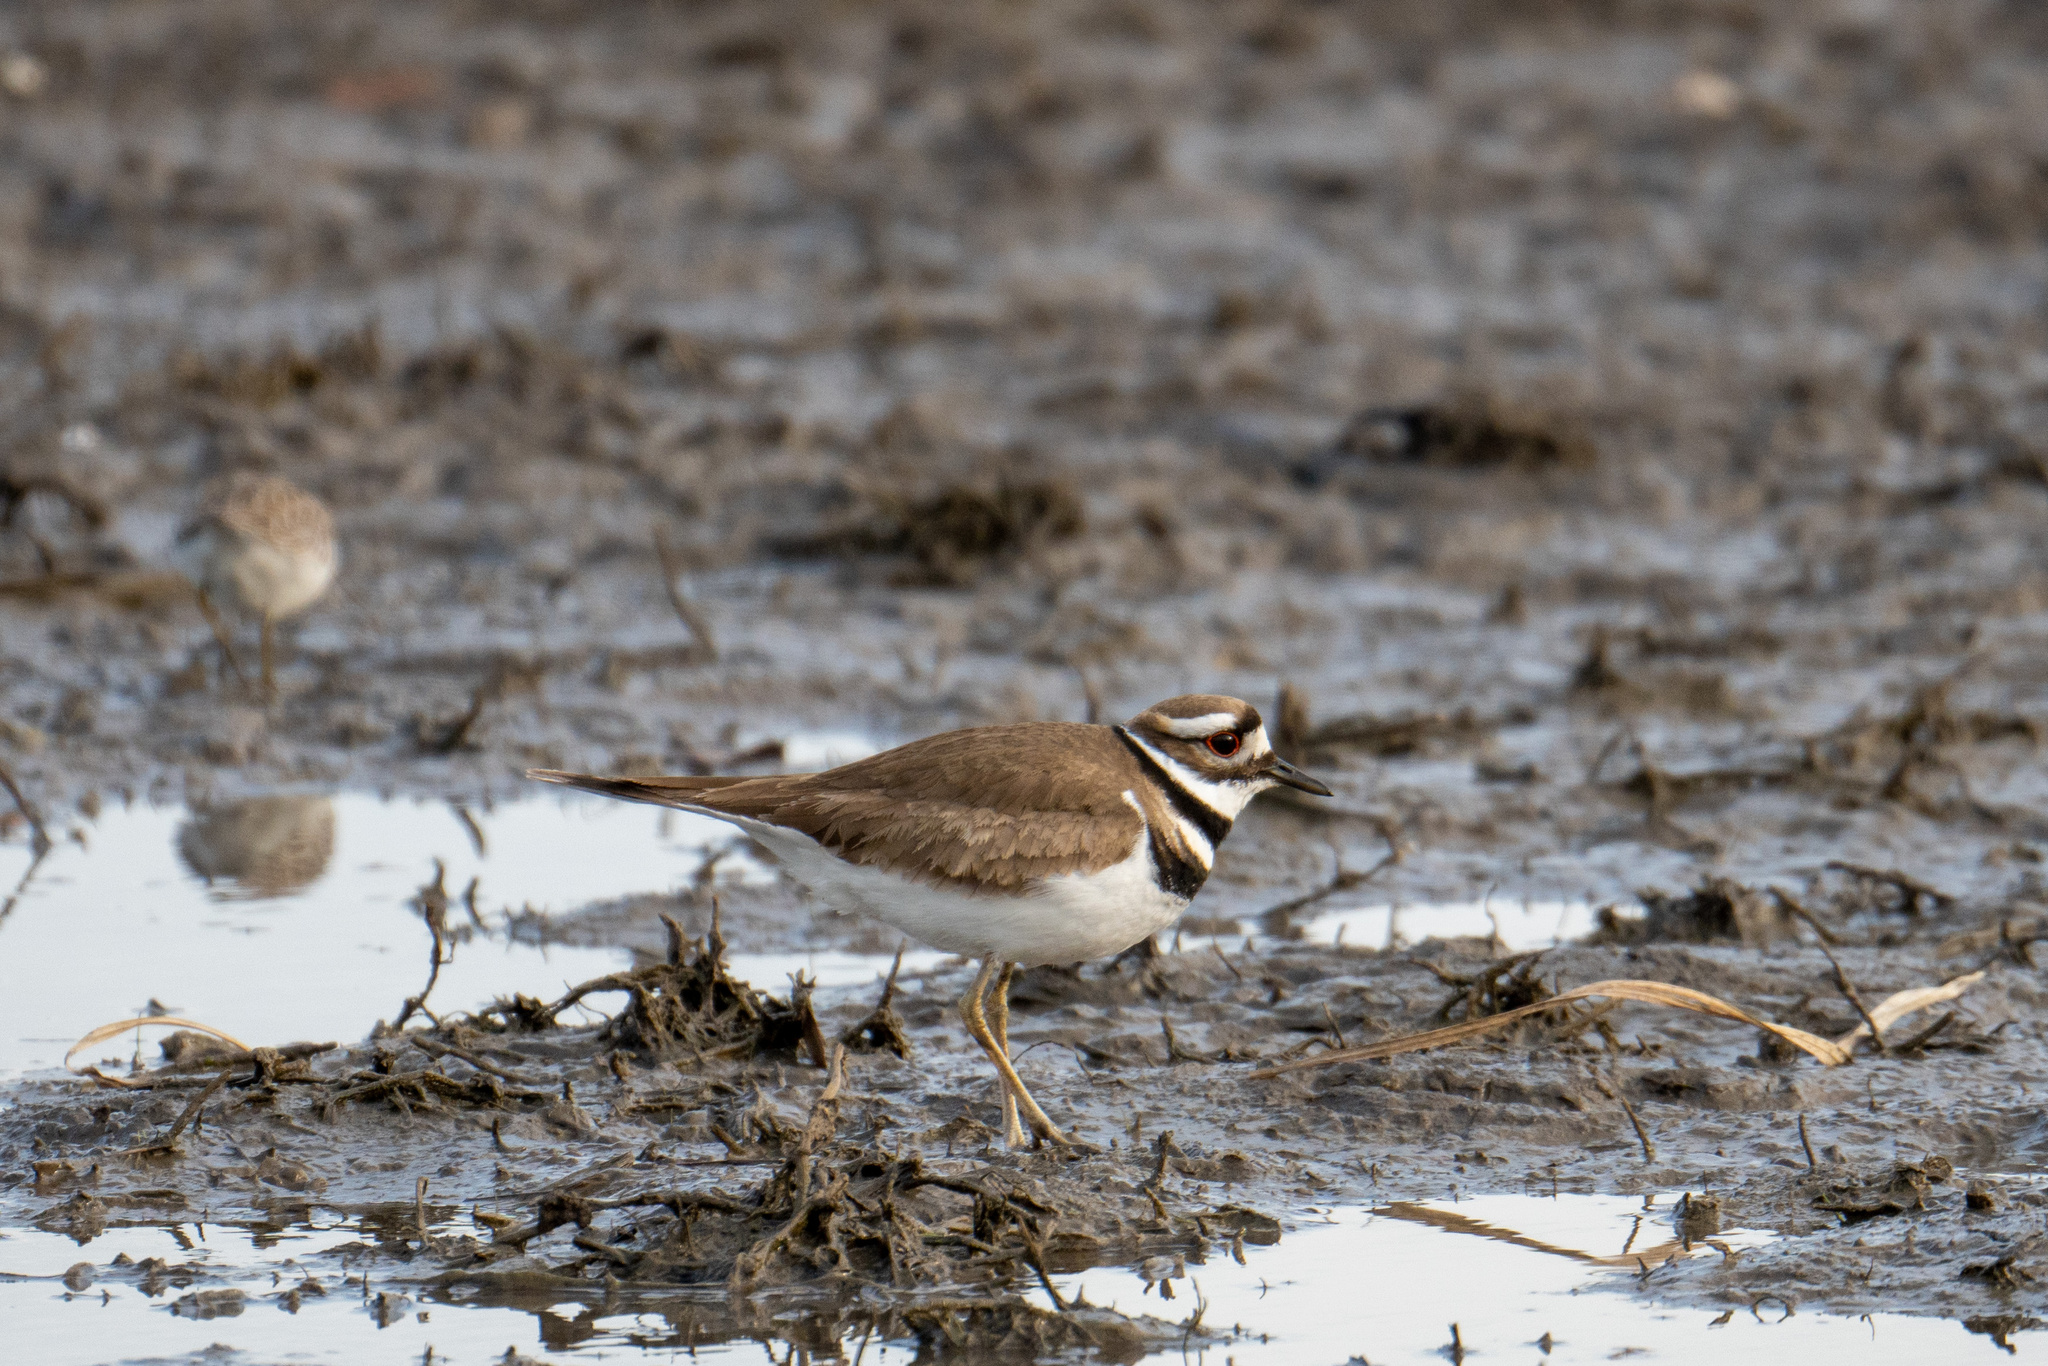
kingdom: Animalia
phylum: Chordata
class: Aves
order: Charadriiformes
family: Charadriidae
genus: Charadrius
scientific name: Charadrius vociferus
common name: Killdeer
